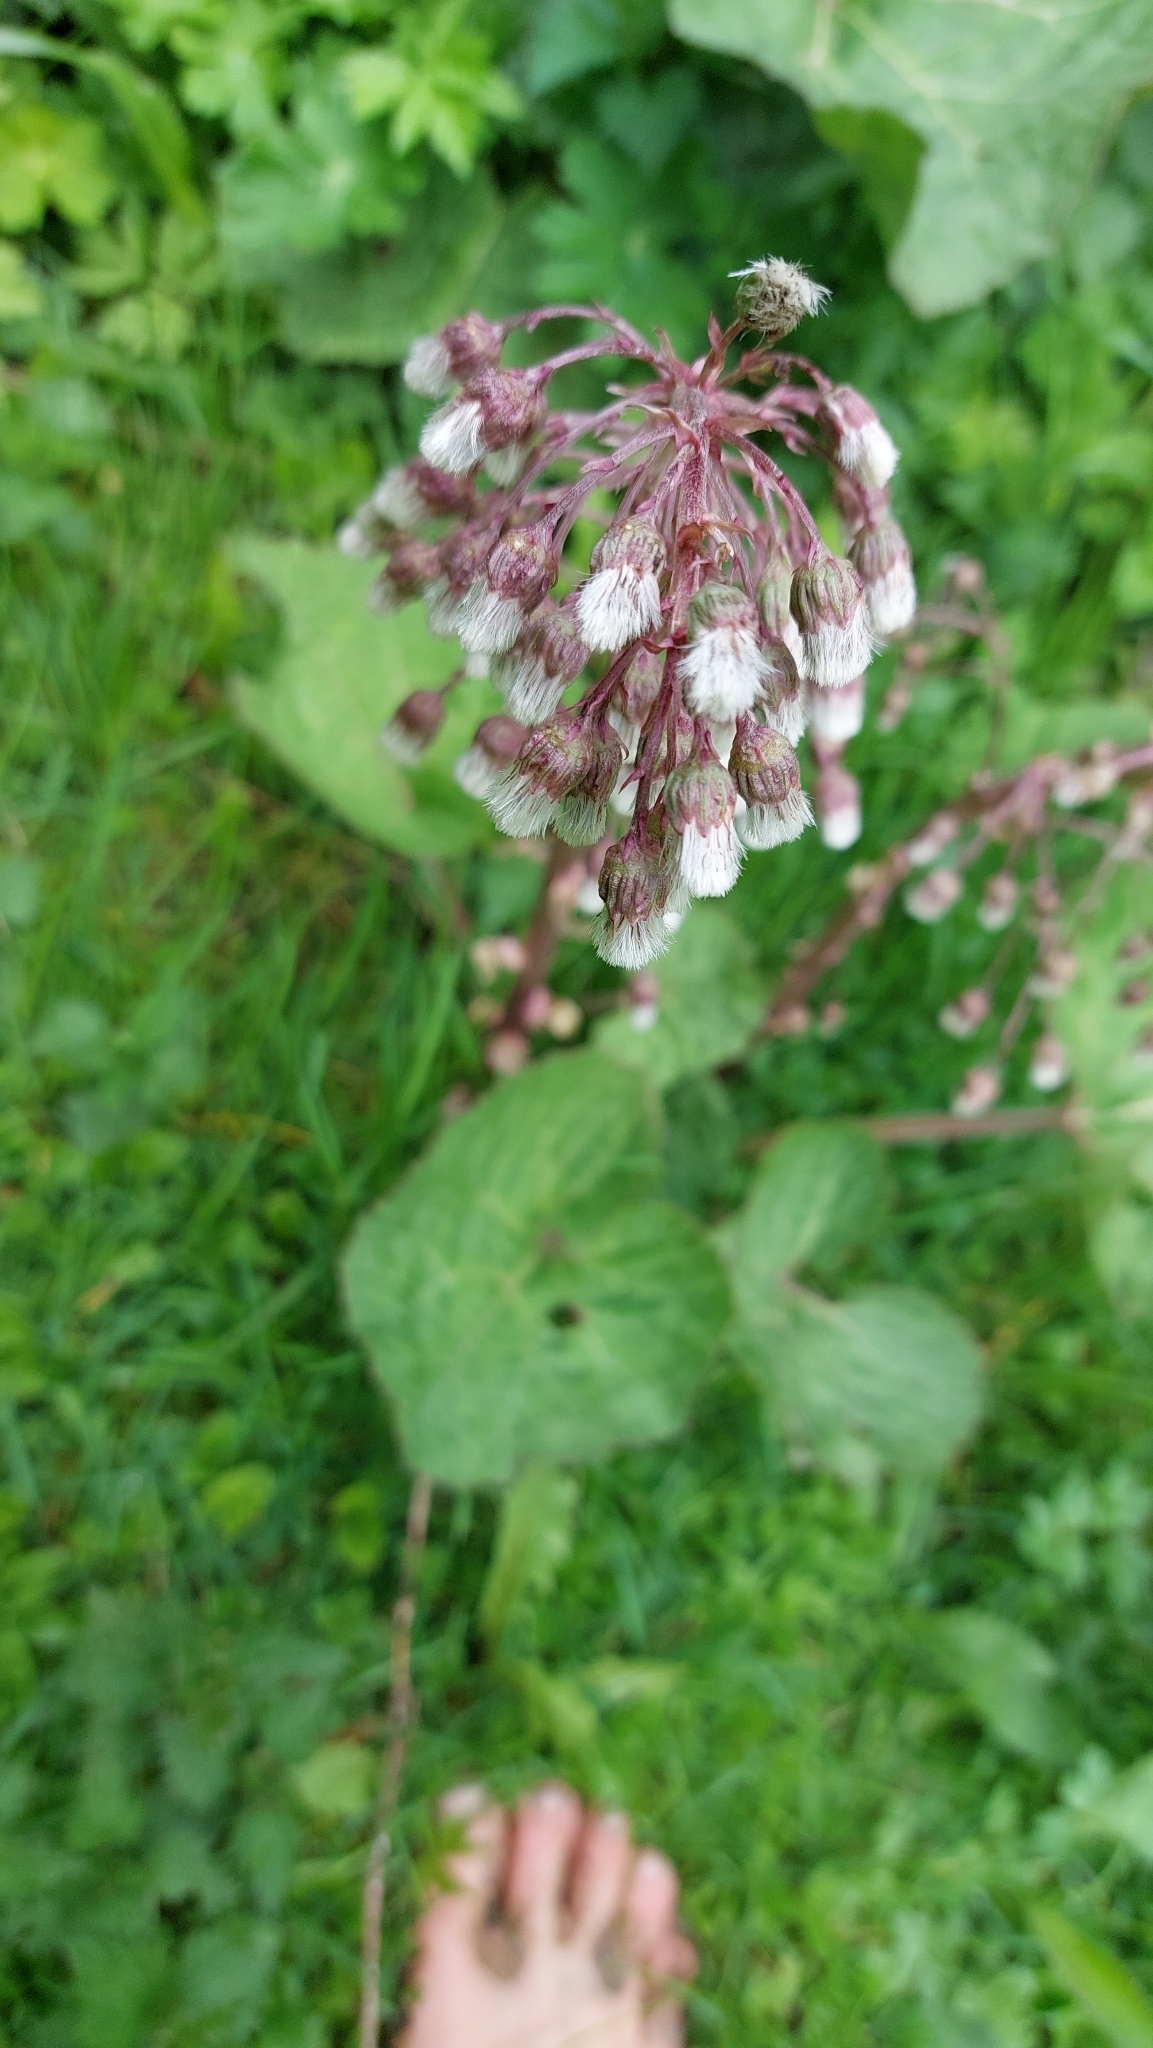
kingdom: Plantae
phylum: Tracheophyta
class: Magnoliopsida
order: Asterales
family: Asteraceae
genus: Petasites
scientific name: Petasites hybridus
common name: Butterbur
